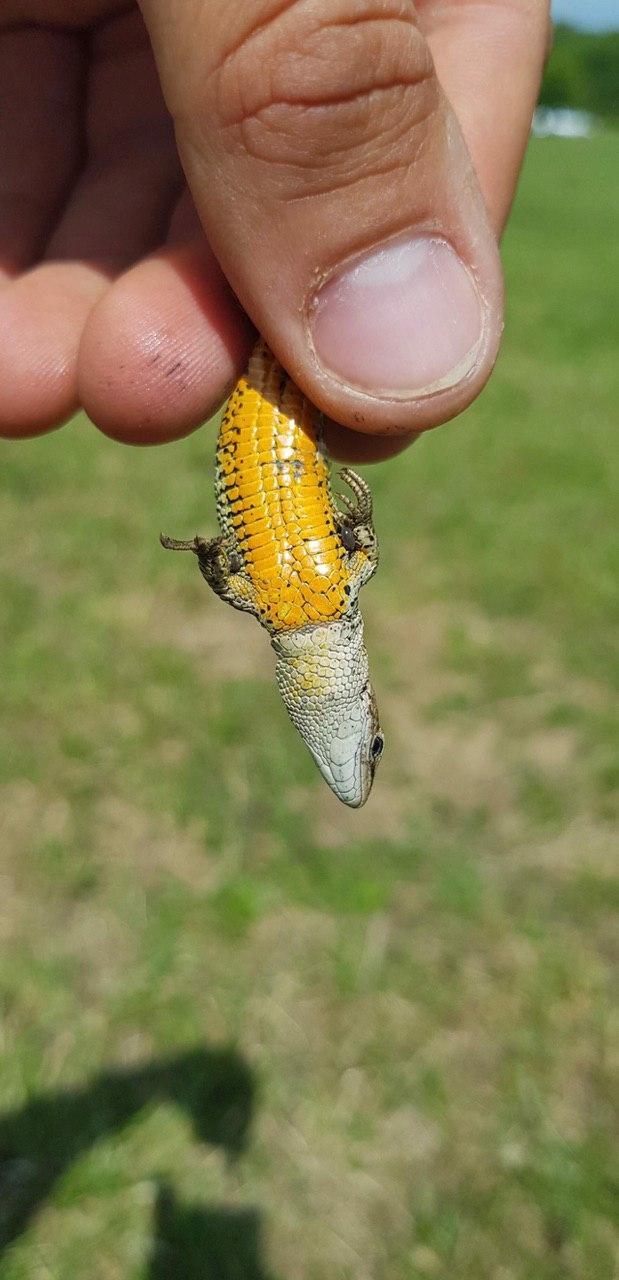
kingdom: Animalia
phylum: Chordata
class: Squamata
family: Lacertidae
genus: Zootoca
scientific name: Zootoca vivipara
